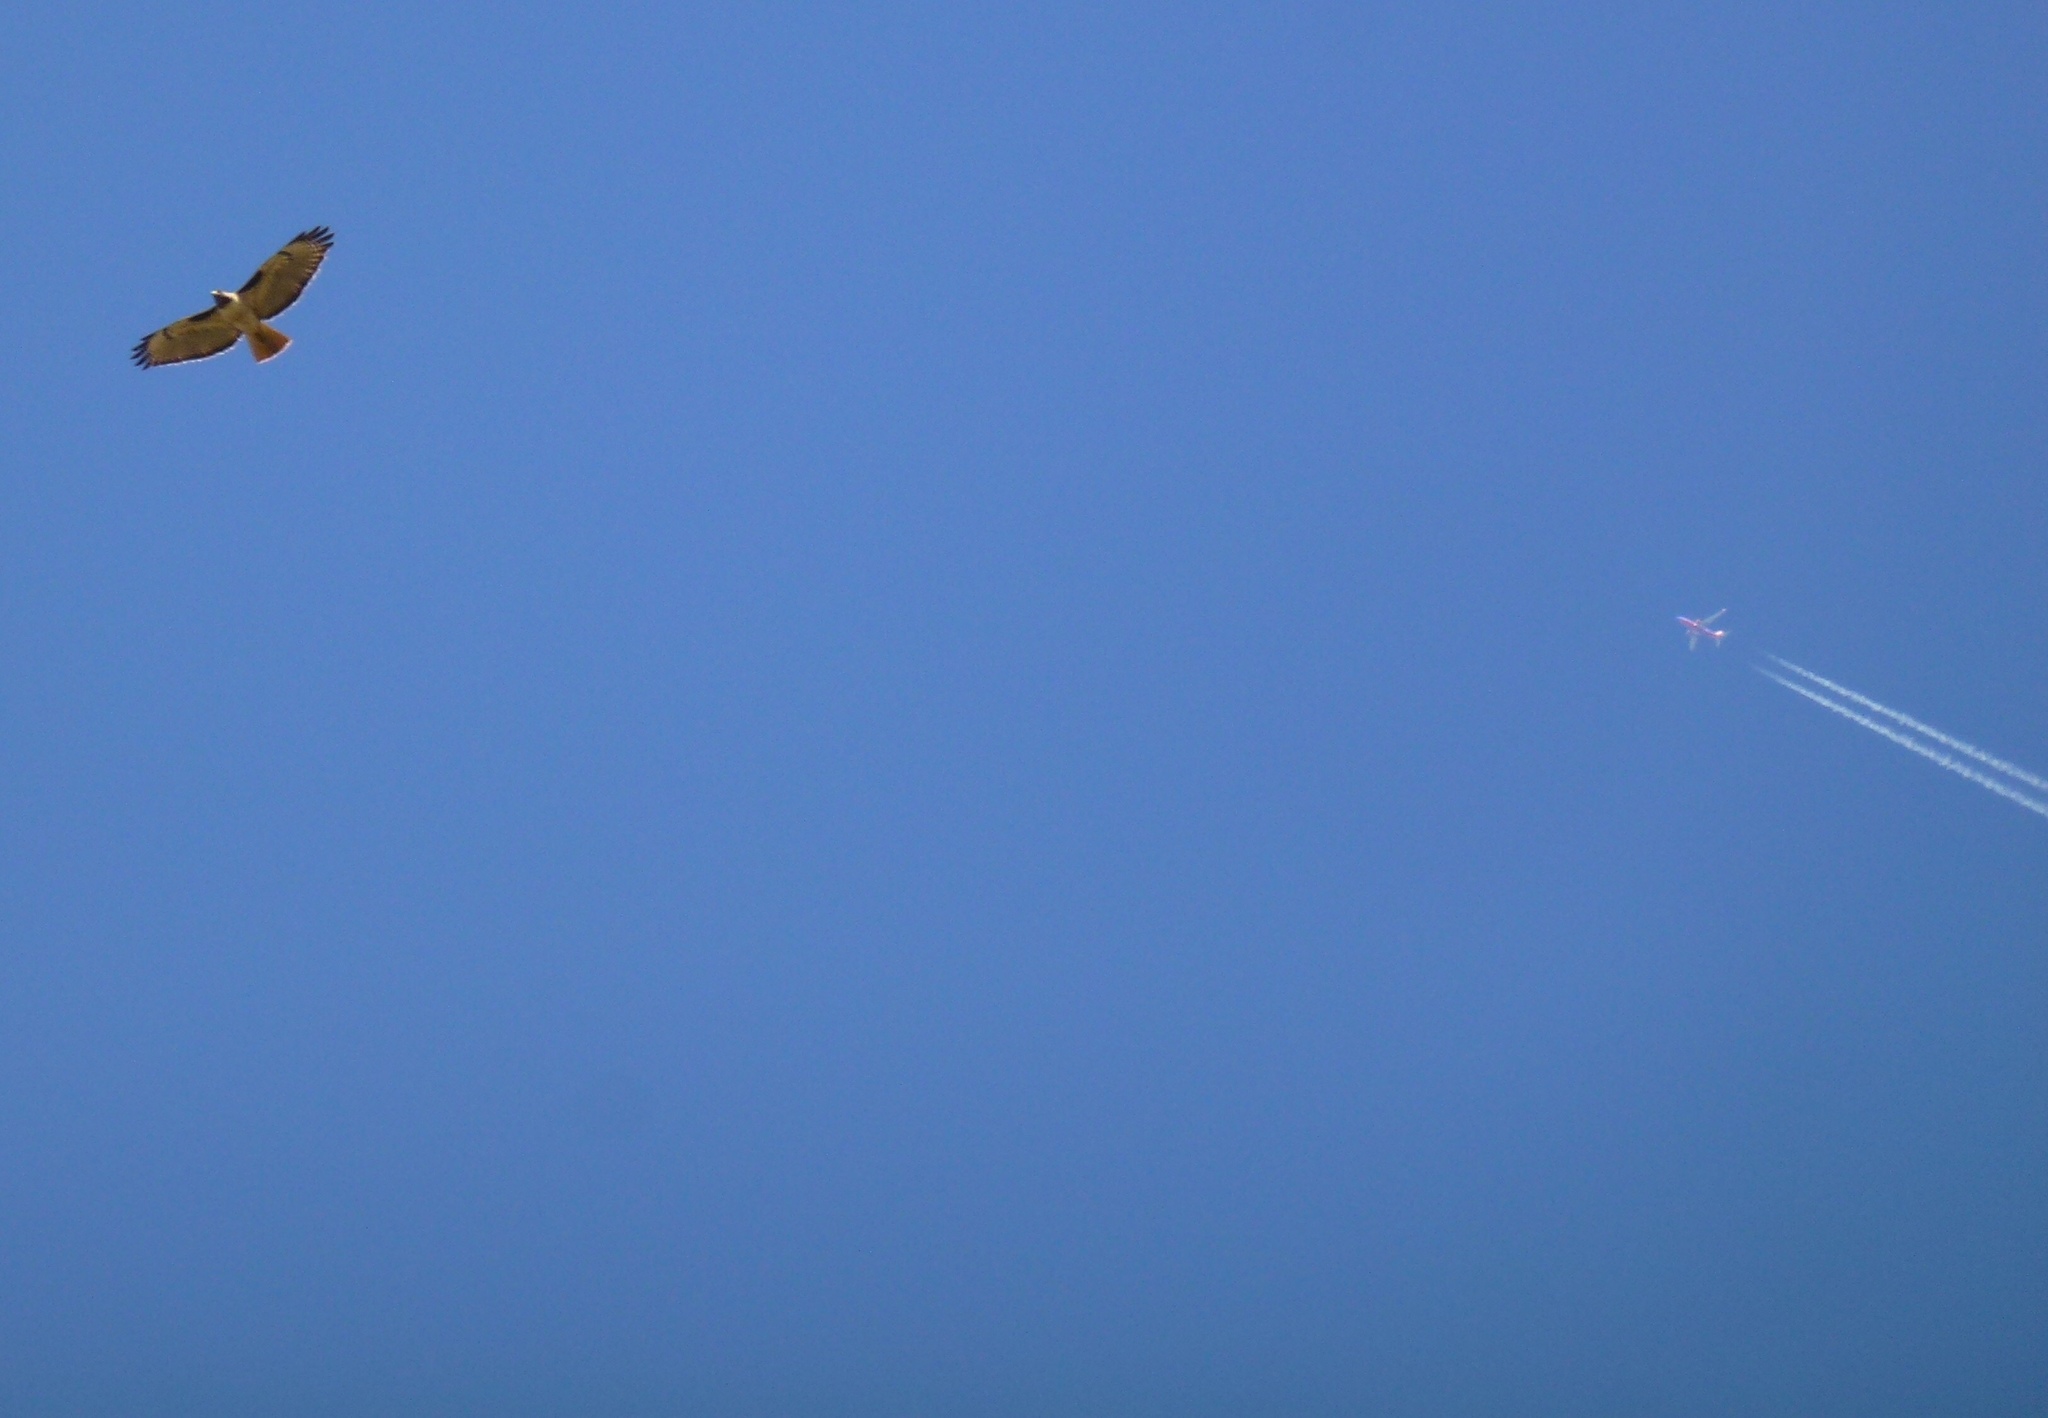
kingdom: Animalia
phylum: Chordata
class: Aves
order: Accipitriformes
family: Accipitridae
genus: Buteo
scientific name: Buteo jamaicensis
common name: Red-tailed hawk
